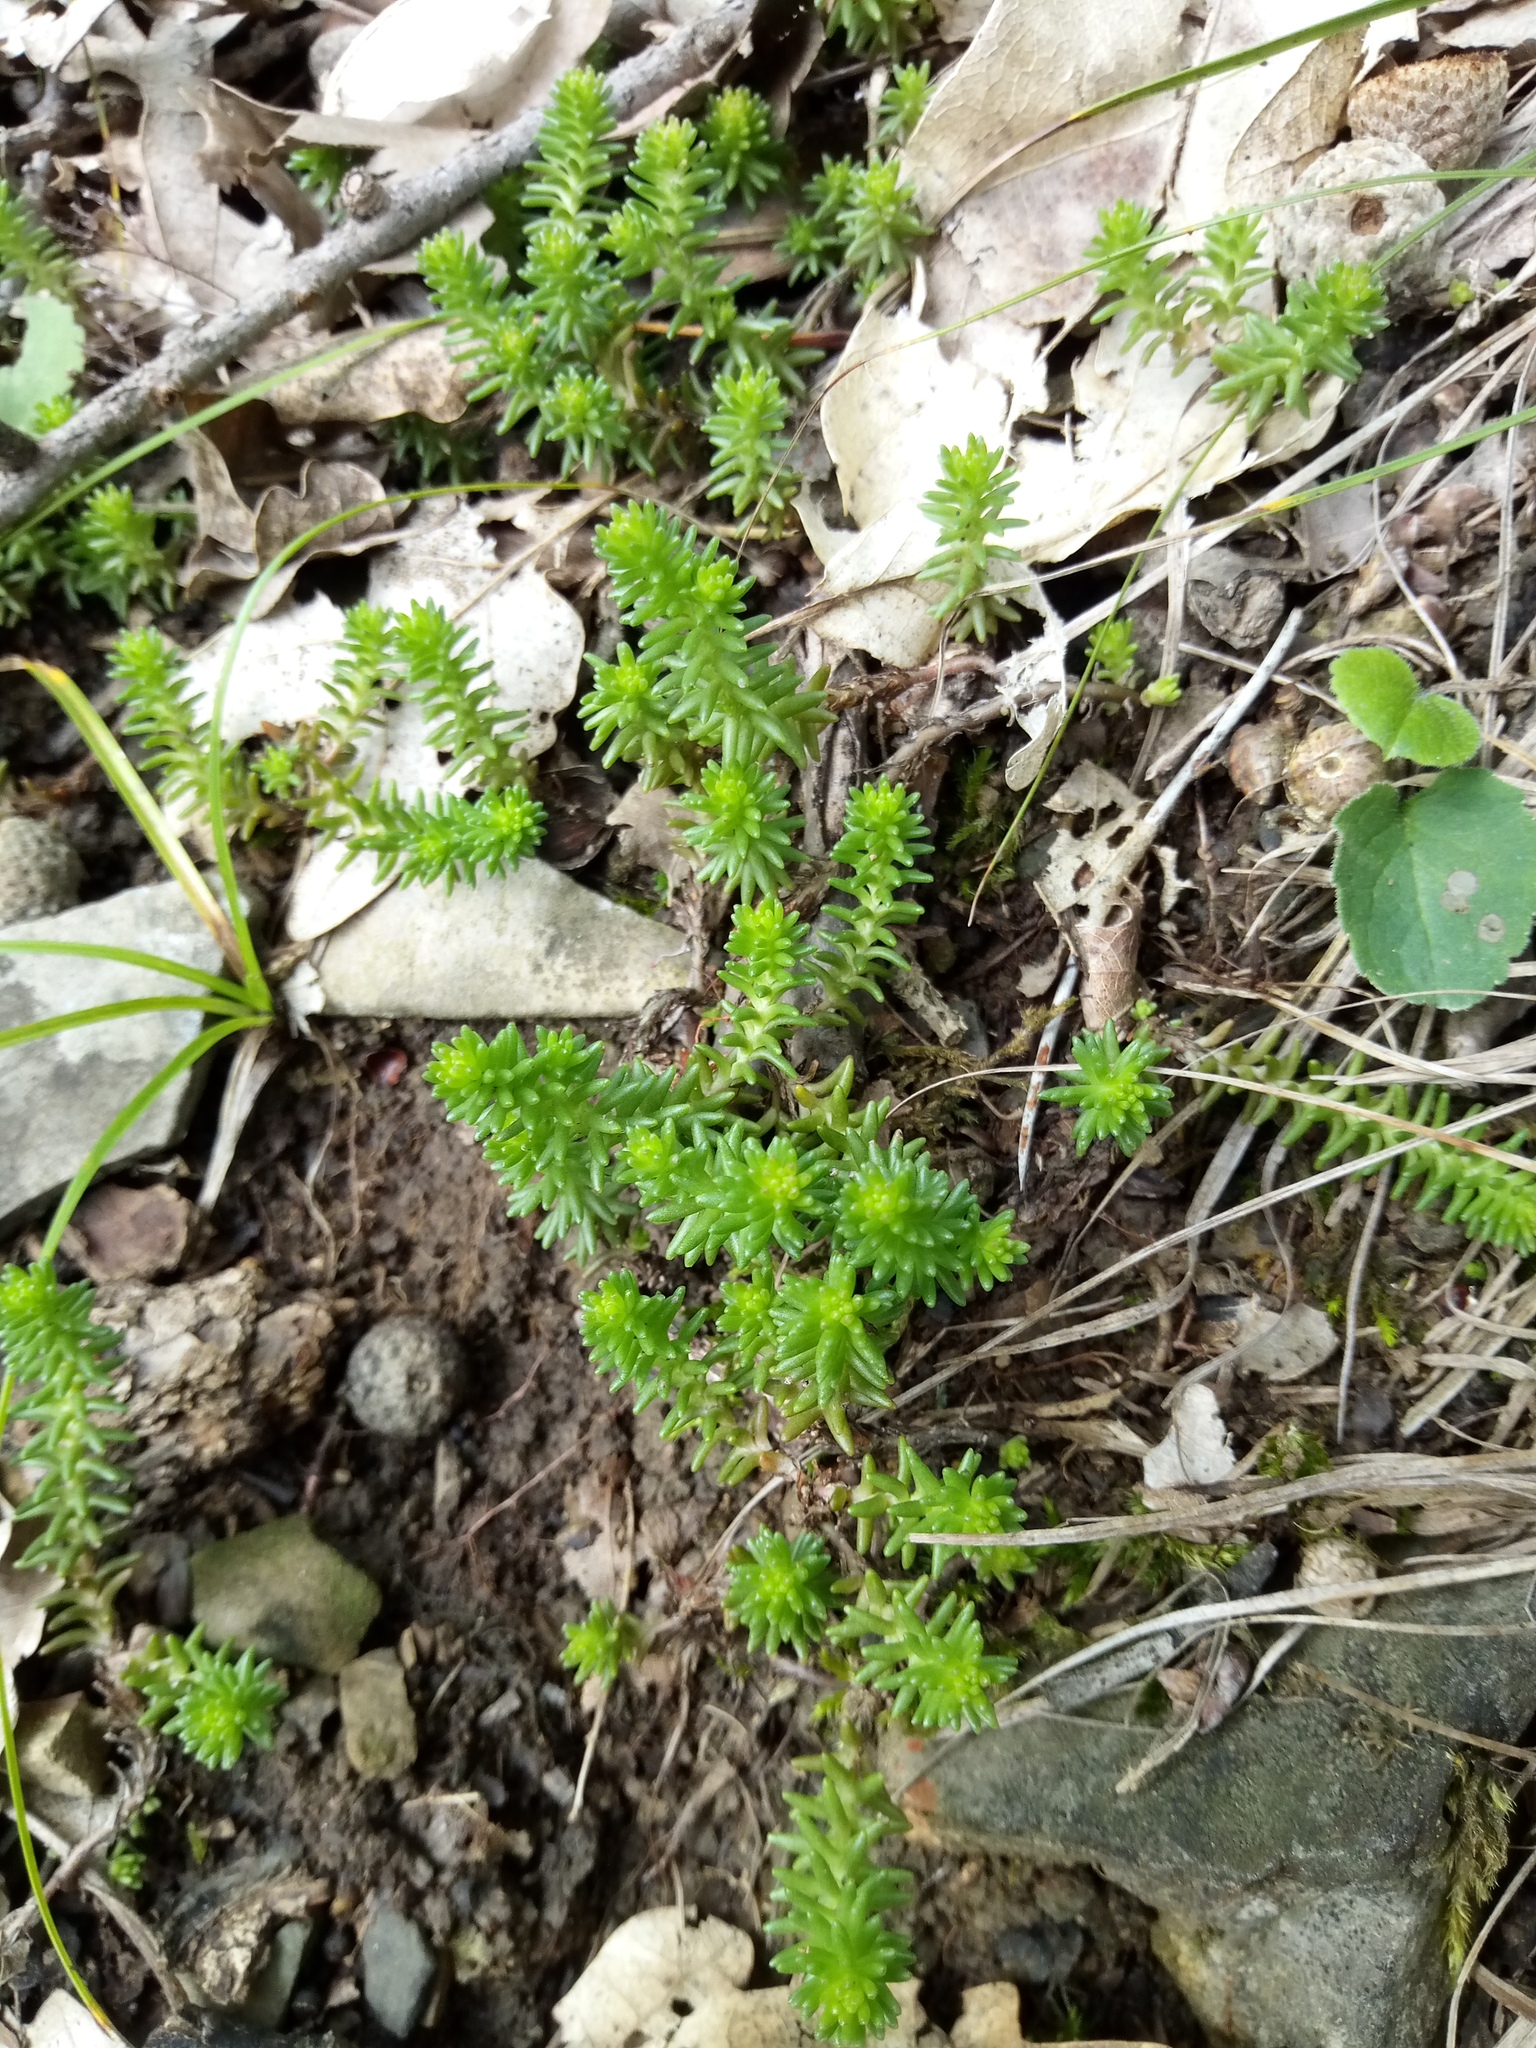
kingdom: Plantae
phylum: Tracheophyta
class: Magnoliopsida
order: Saxifragales
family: Crassulaceae
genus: Sedum
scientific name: Sedum sexangulare
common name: Tasteless stonecrop
